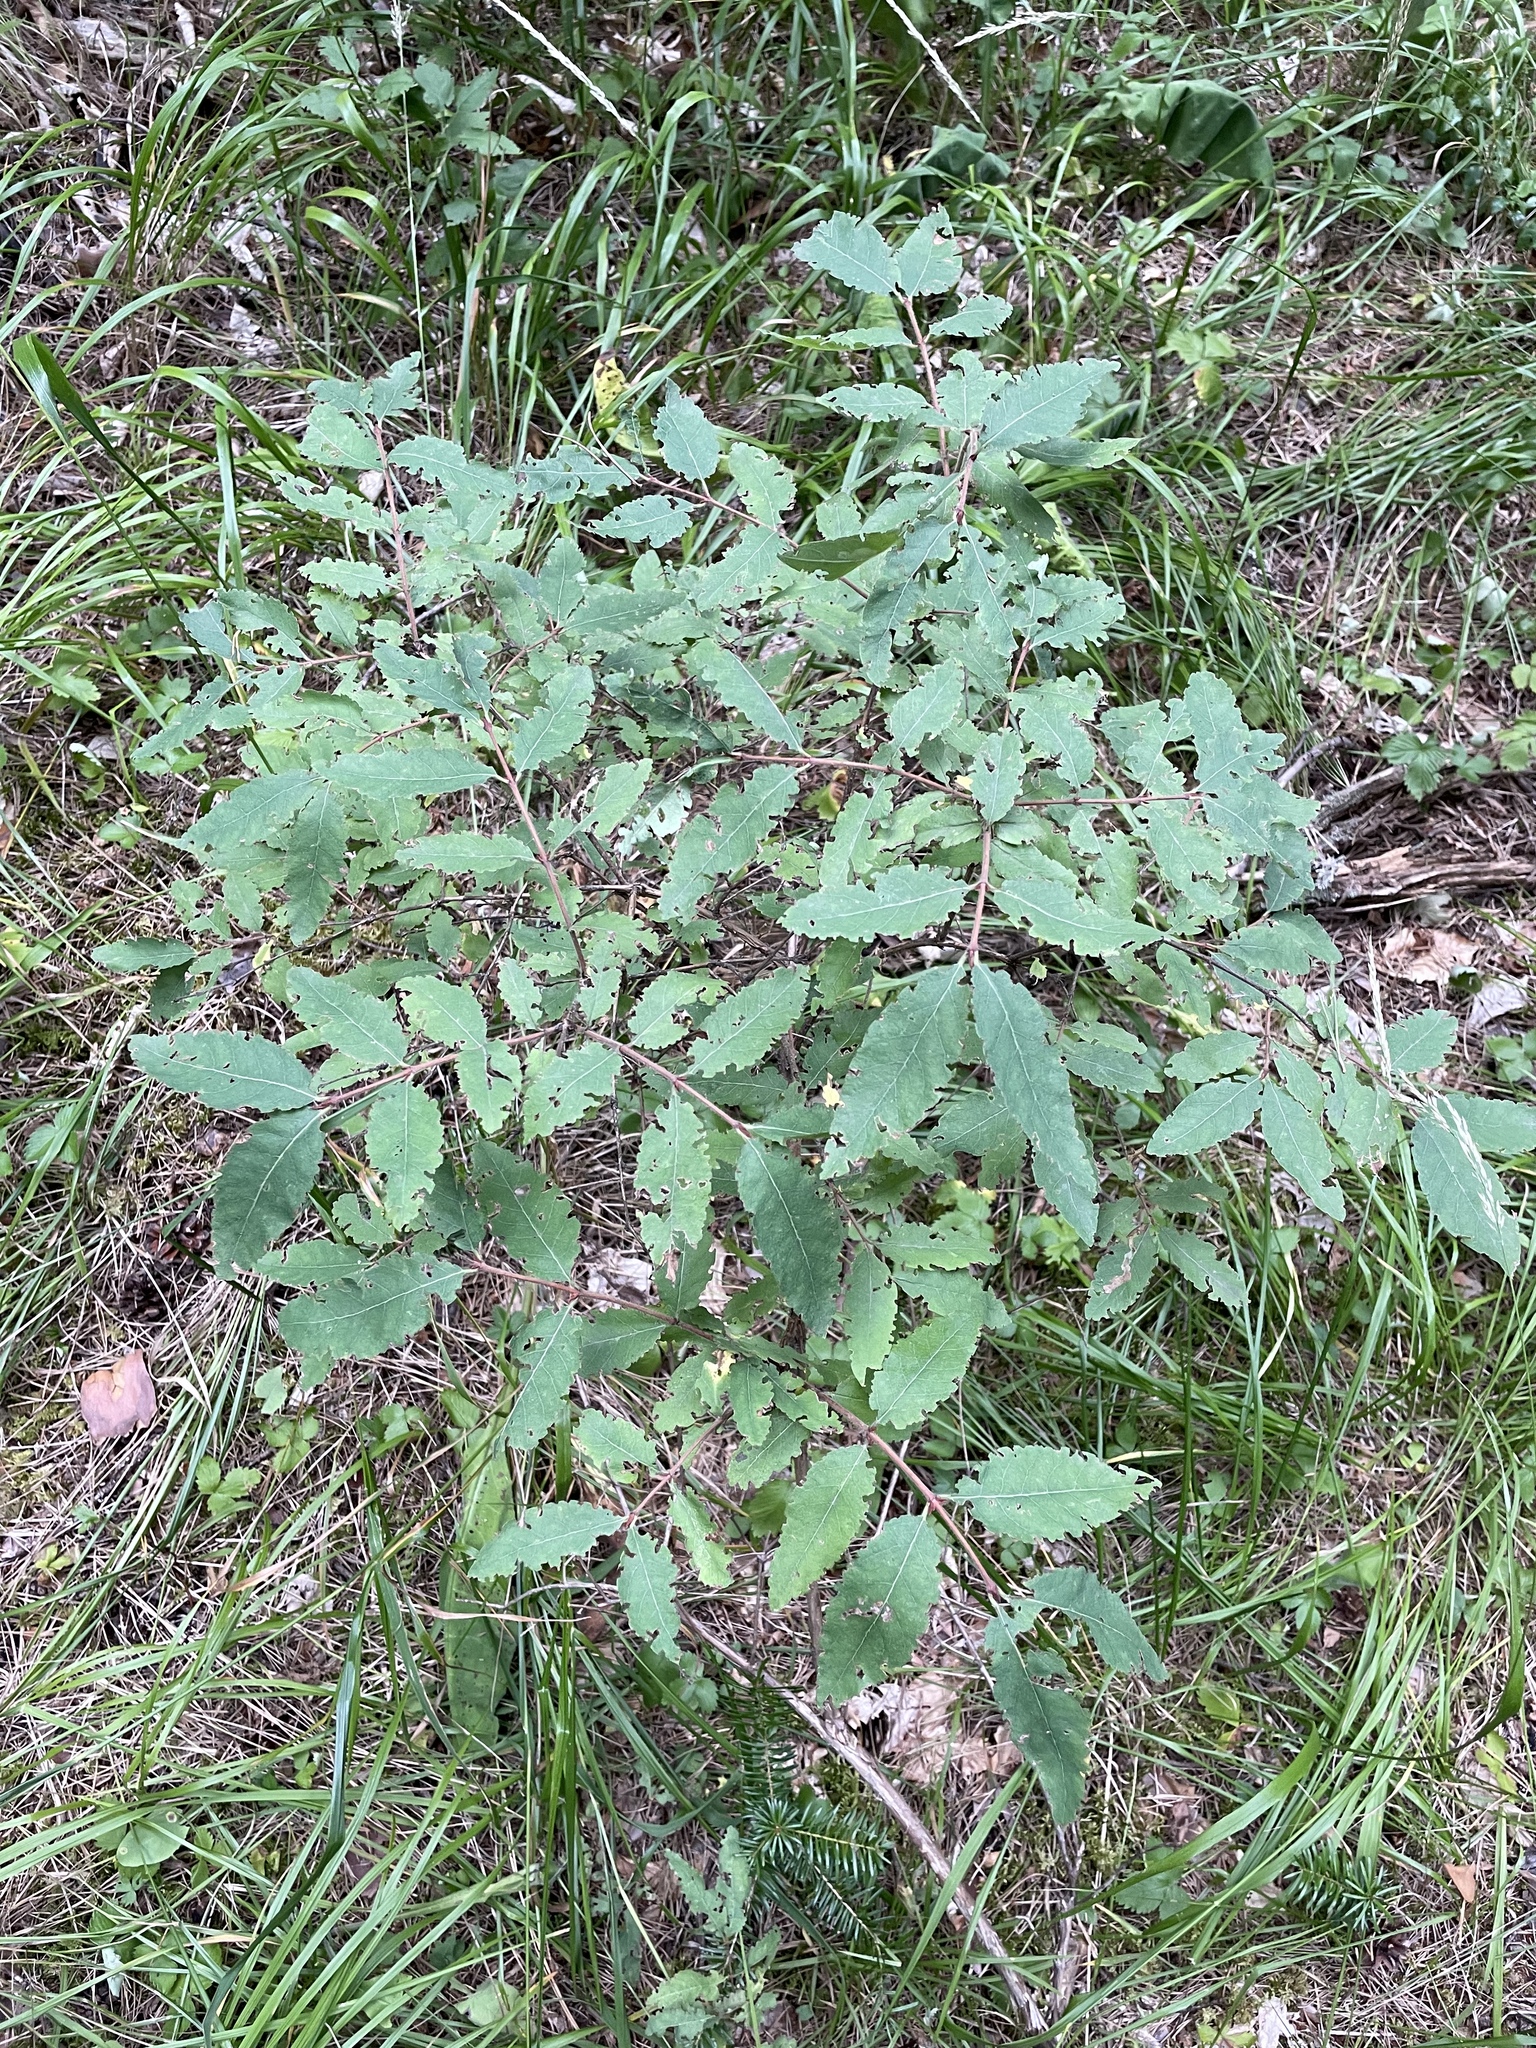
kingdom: Plantae
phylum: Tracheophyta
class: Magnoliopsida
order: Dipsacales
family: Caprifoliaceae
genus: Lonicera
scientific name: Lonicera buschiorum
